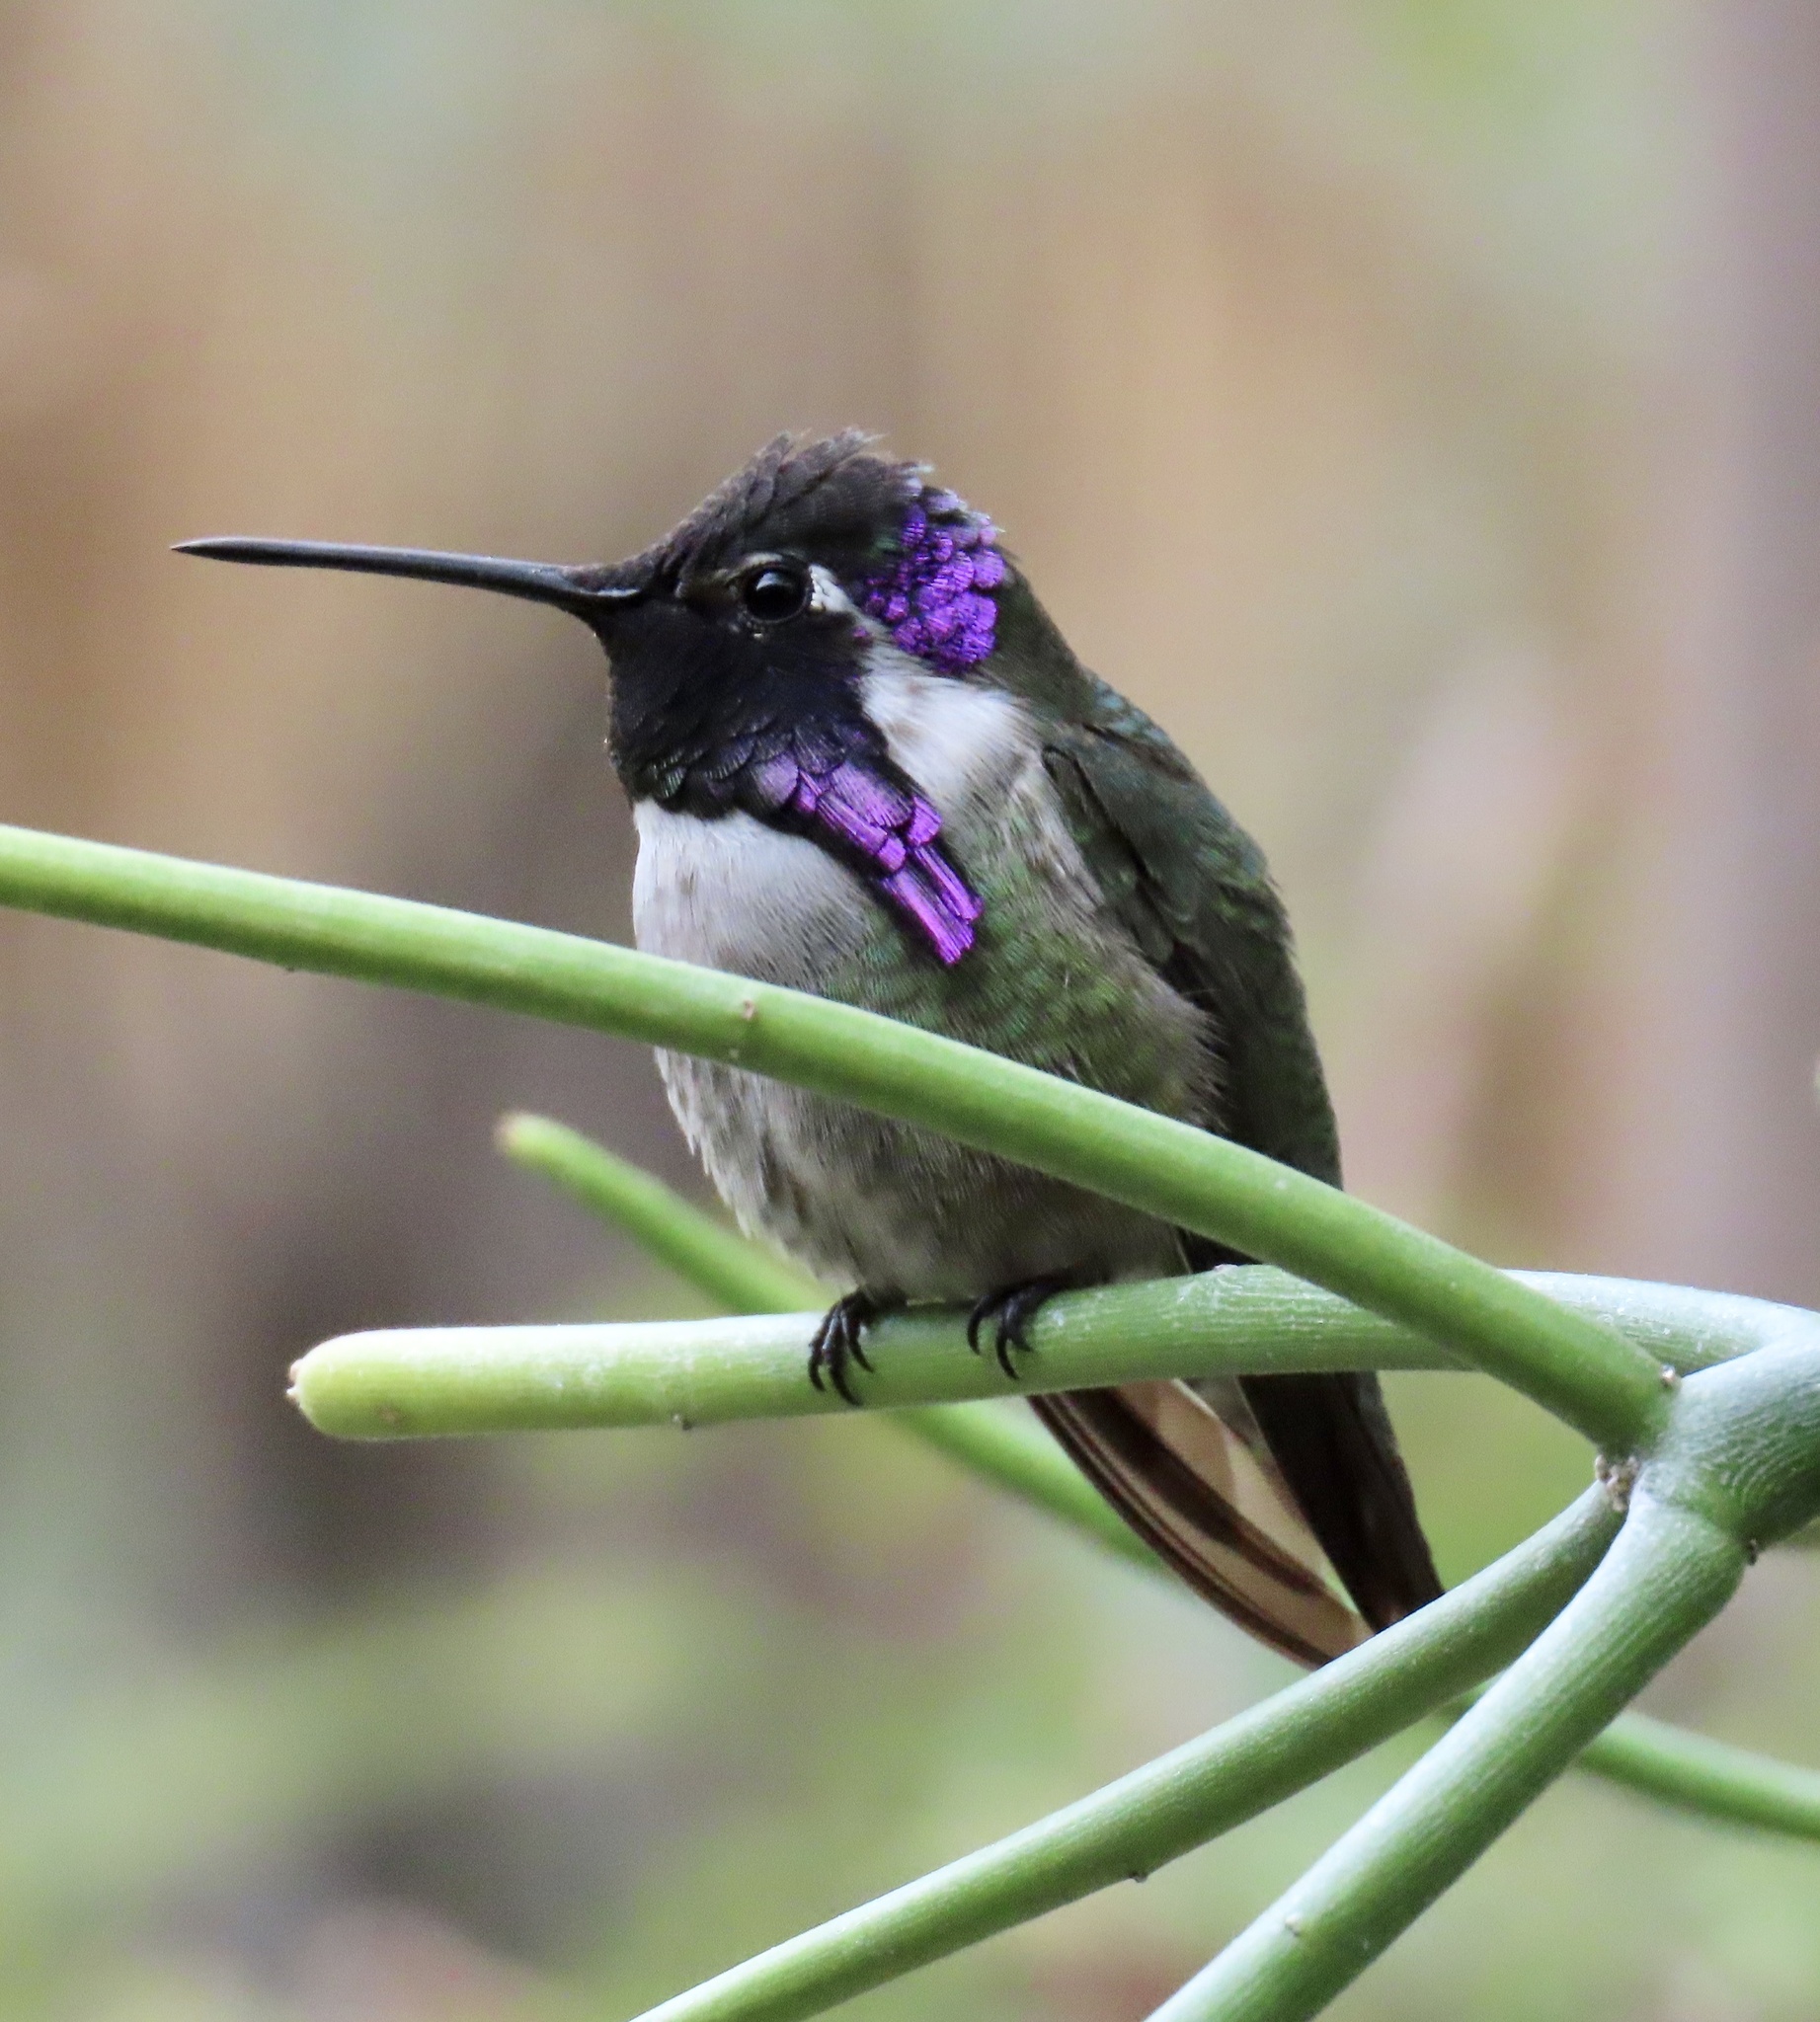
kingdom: Animalia
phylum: Chordata
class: Aves
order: Apodiformes
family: Trochilidae
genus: Calypte
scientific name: Calypte costae
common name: Costa's hummingbird
